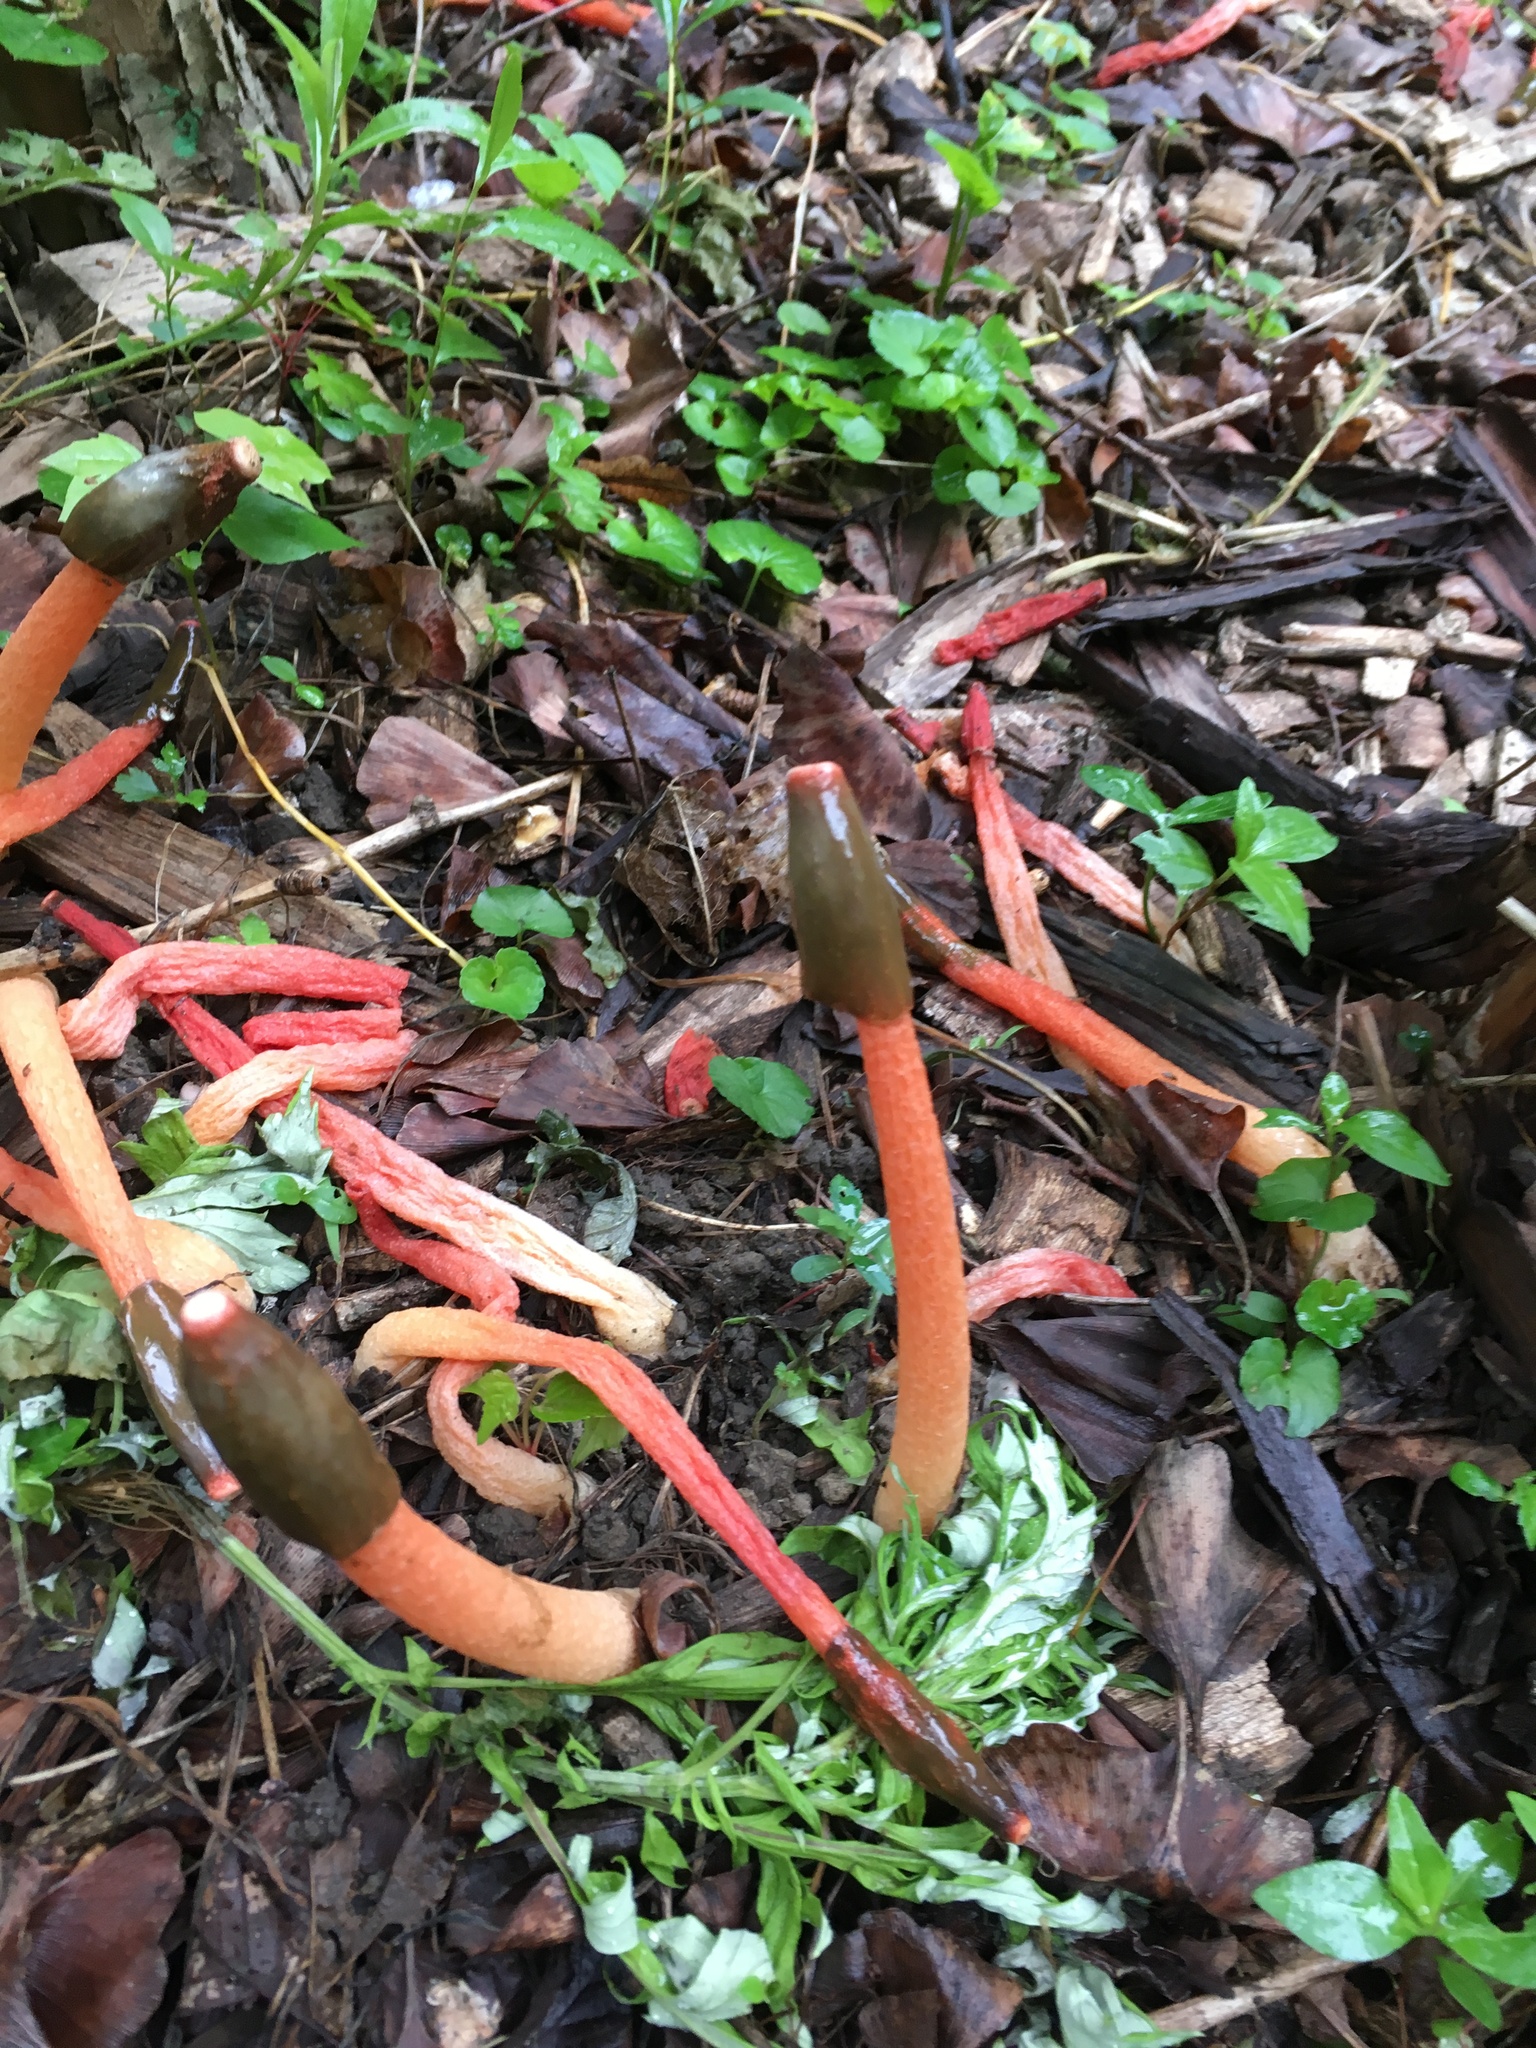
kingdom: Fungi
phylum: Basidiomycota
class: Agaricomycetes
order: Phallales
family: Phallaceae
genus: Phallus
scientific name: Phallus rugulosus
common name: Wrinkly stinkhorn
